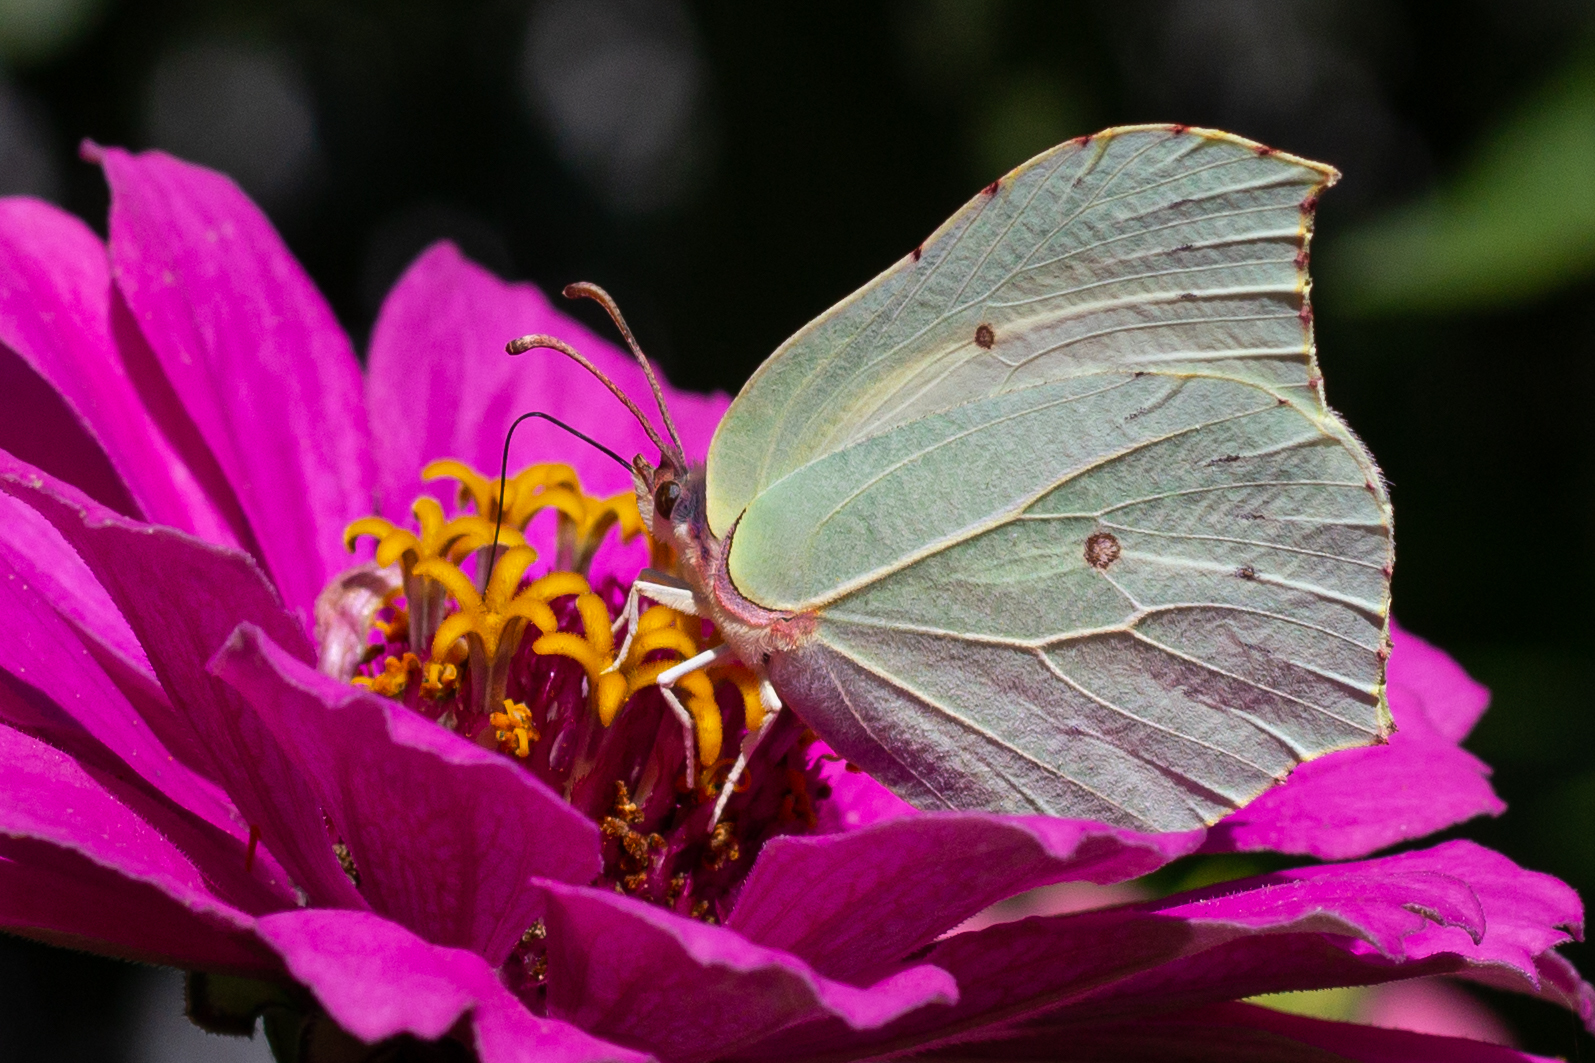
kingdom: Animalia
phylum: Arthropoda
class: Insecta
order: Lepidoptera
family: Pieridae
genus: Gonepteryx
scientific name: Gonepteryx rhamni
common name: Brimstone
